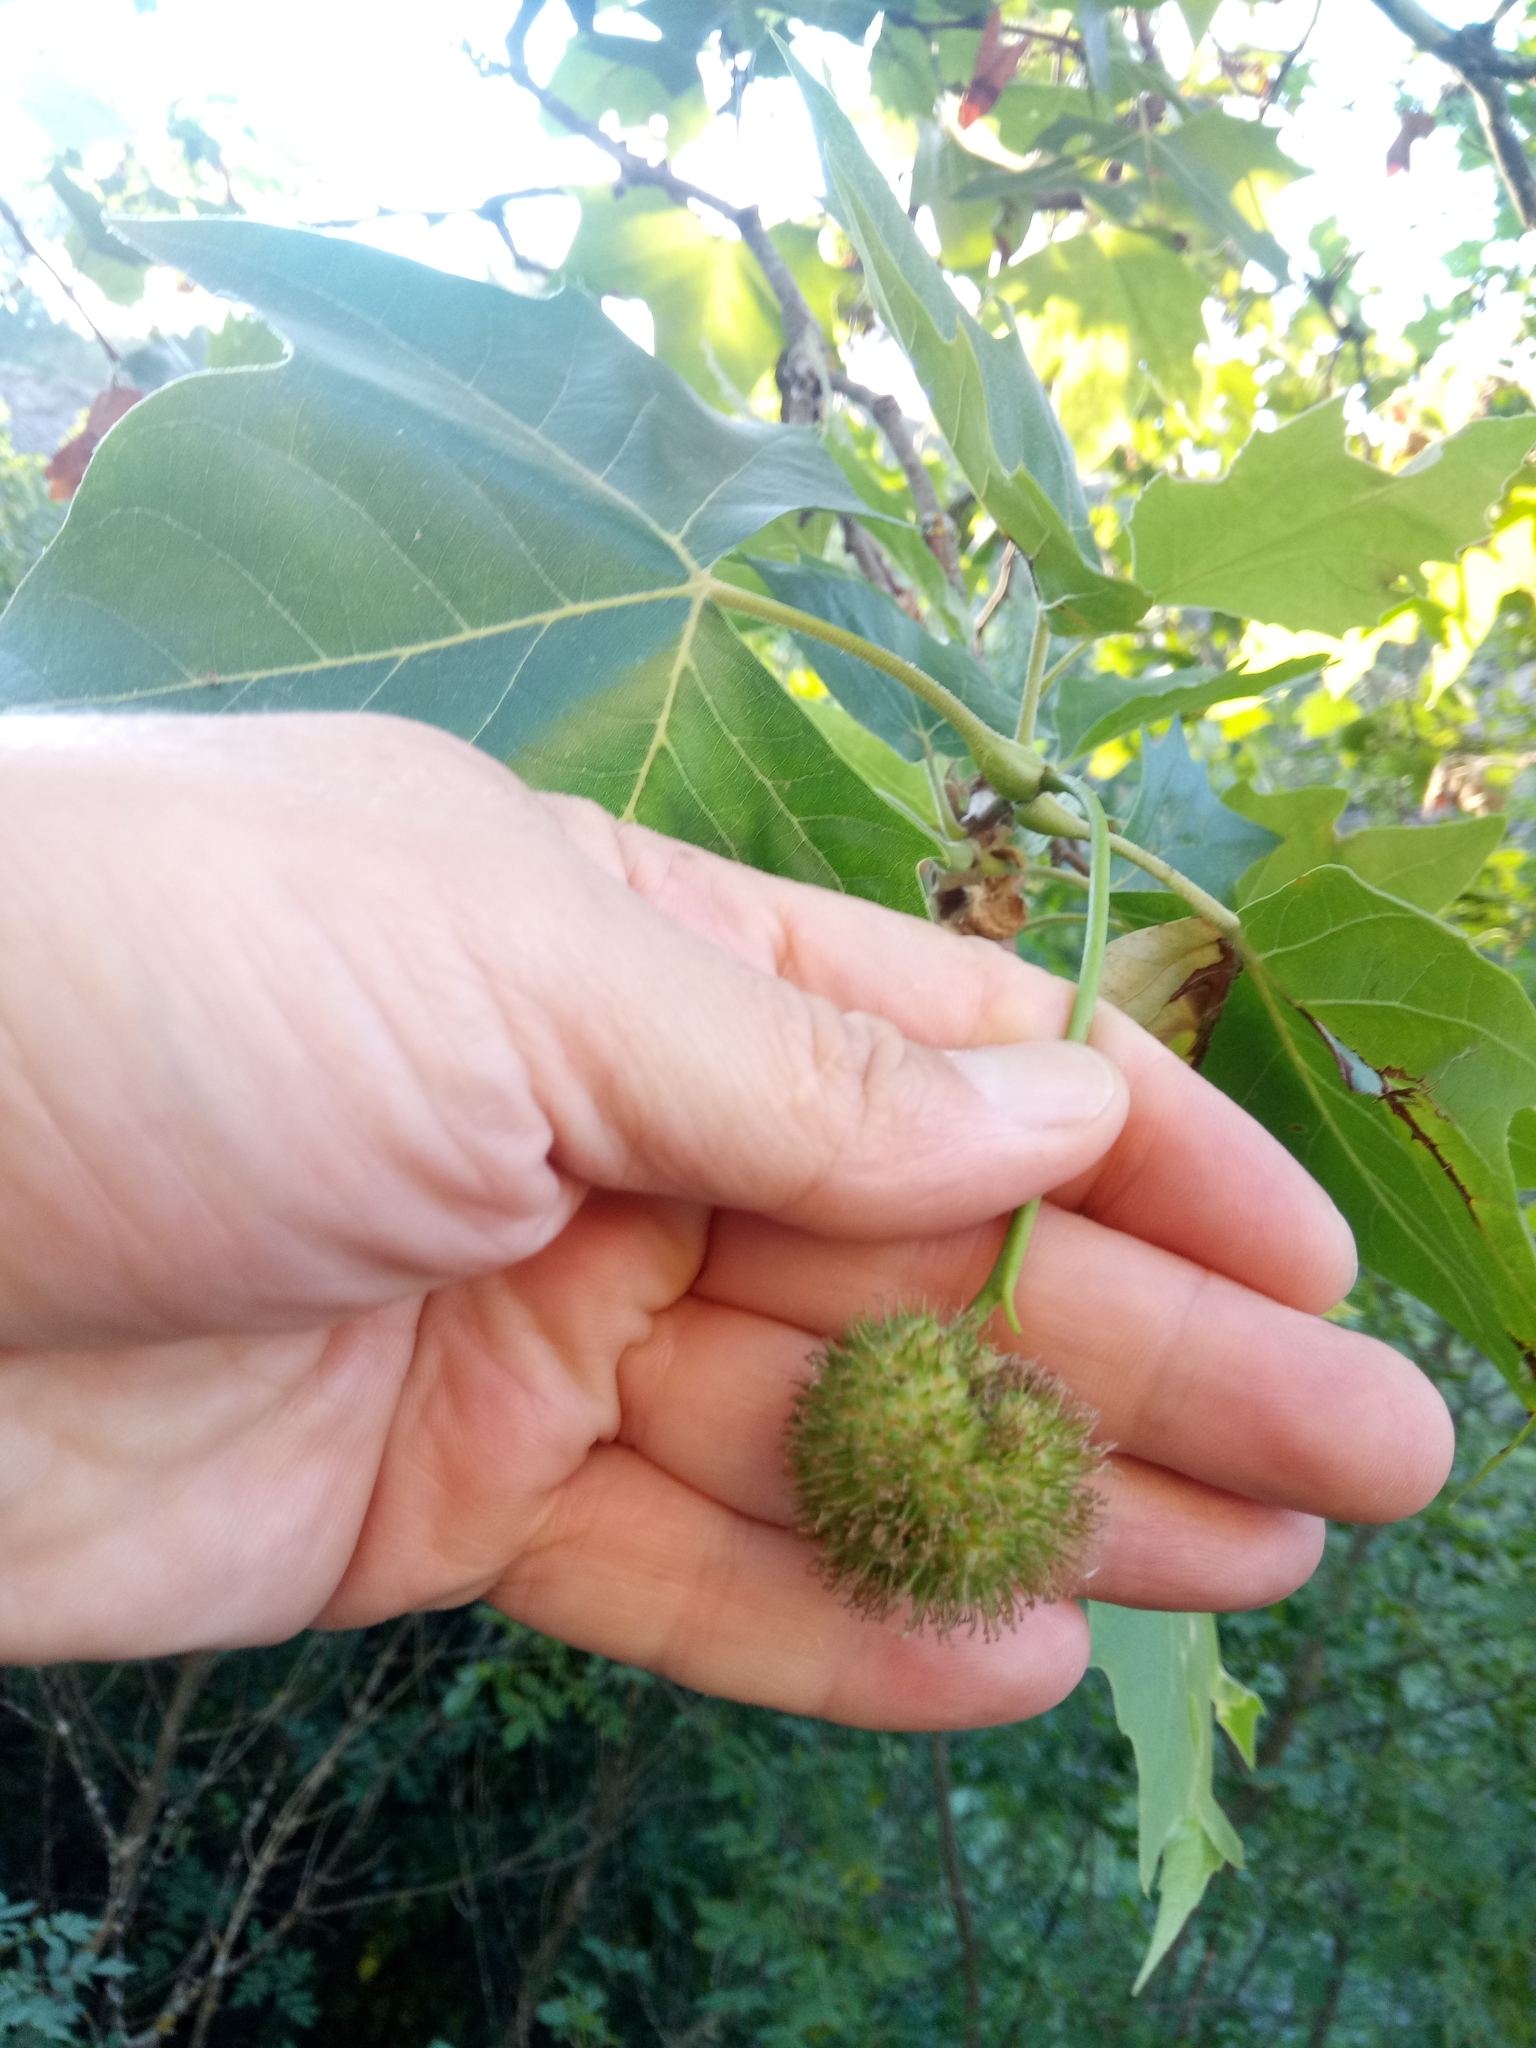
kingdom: Plantae
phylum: Tracheophyta
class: Magnoliopsida
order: Proteales
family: Platanaceae
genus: Platanus
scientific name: Platanus hispanica
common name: London plane
